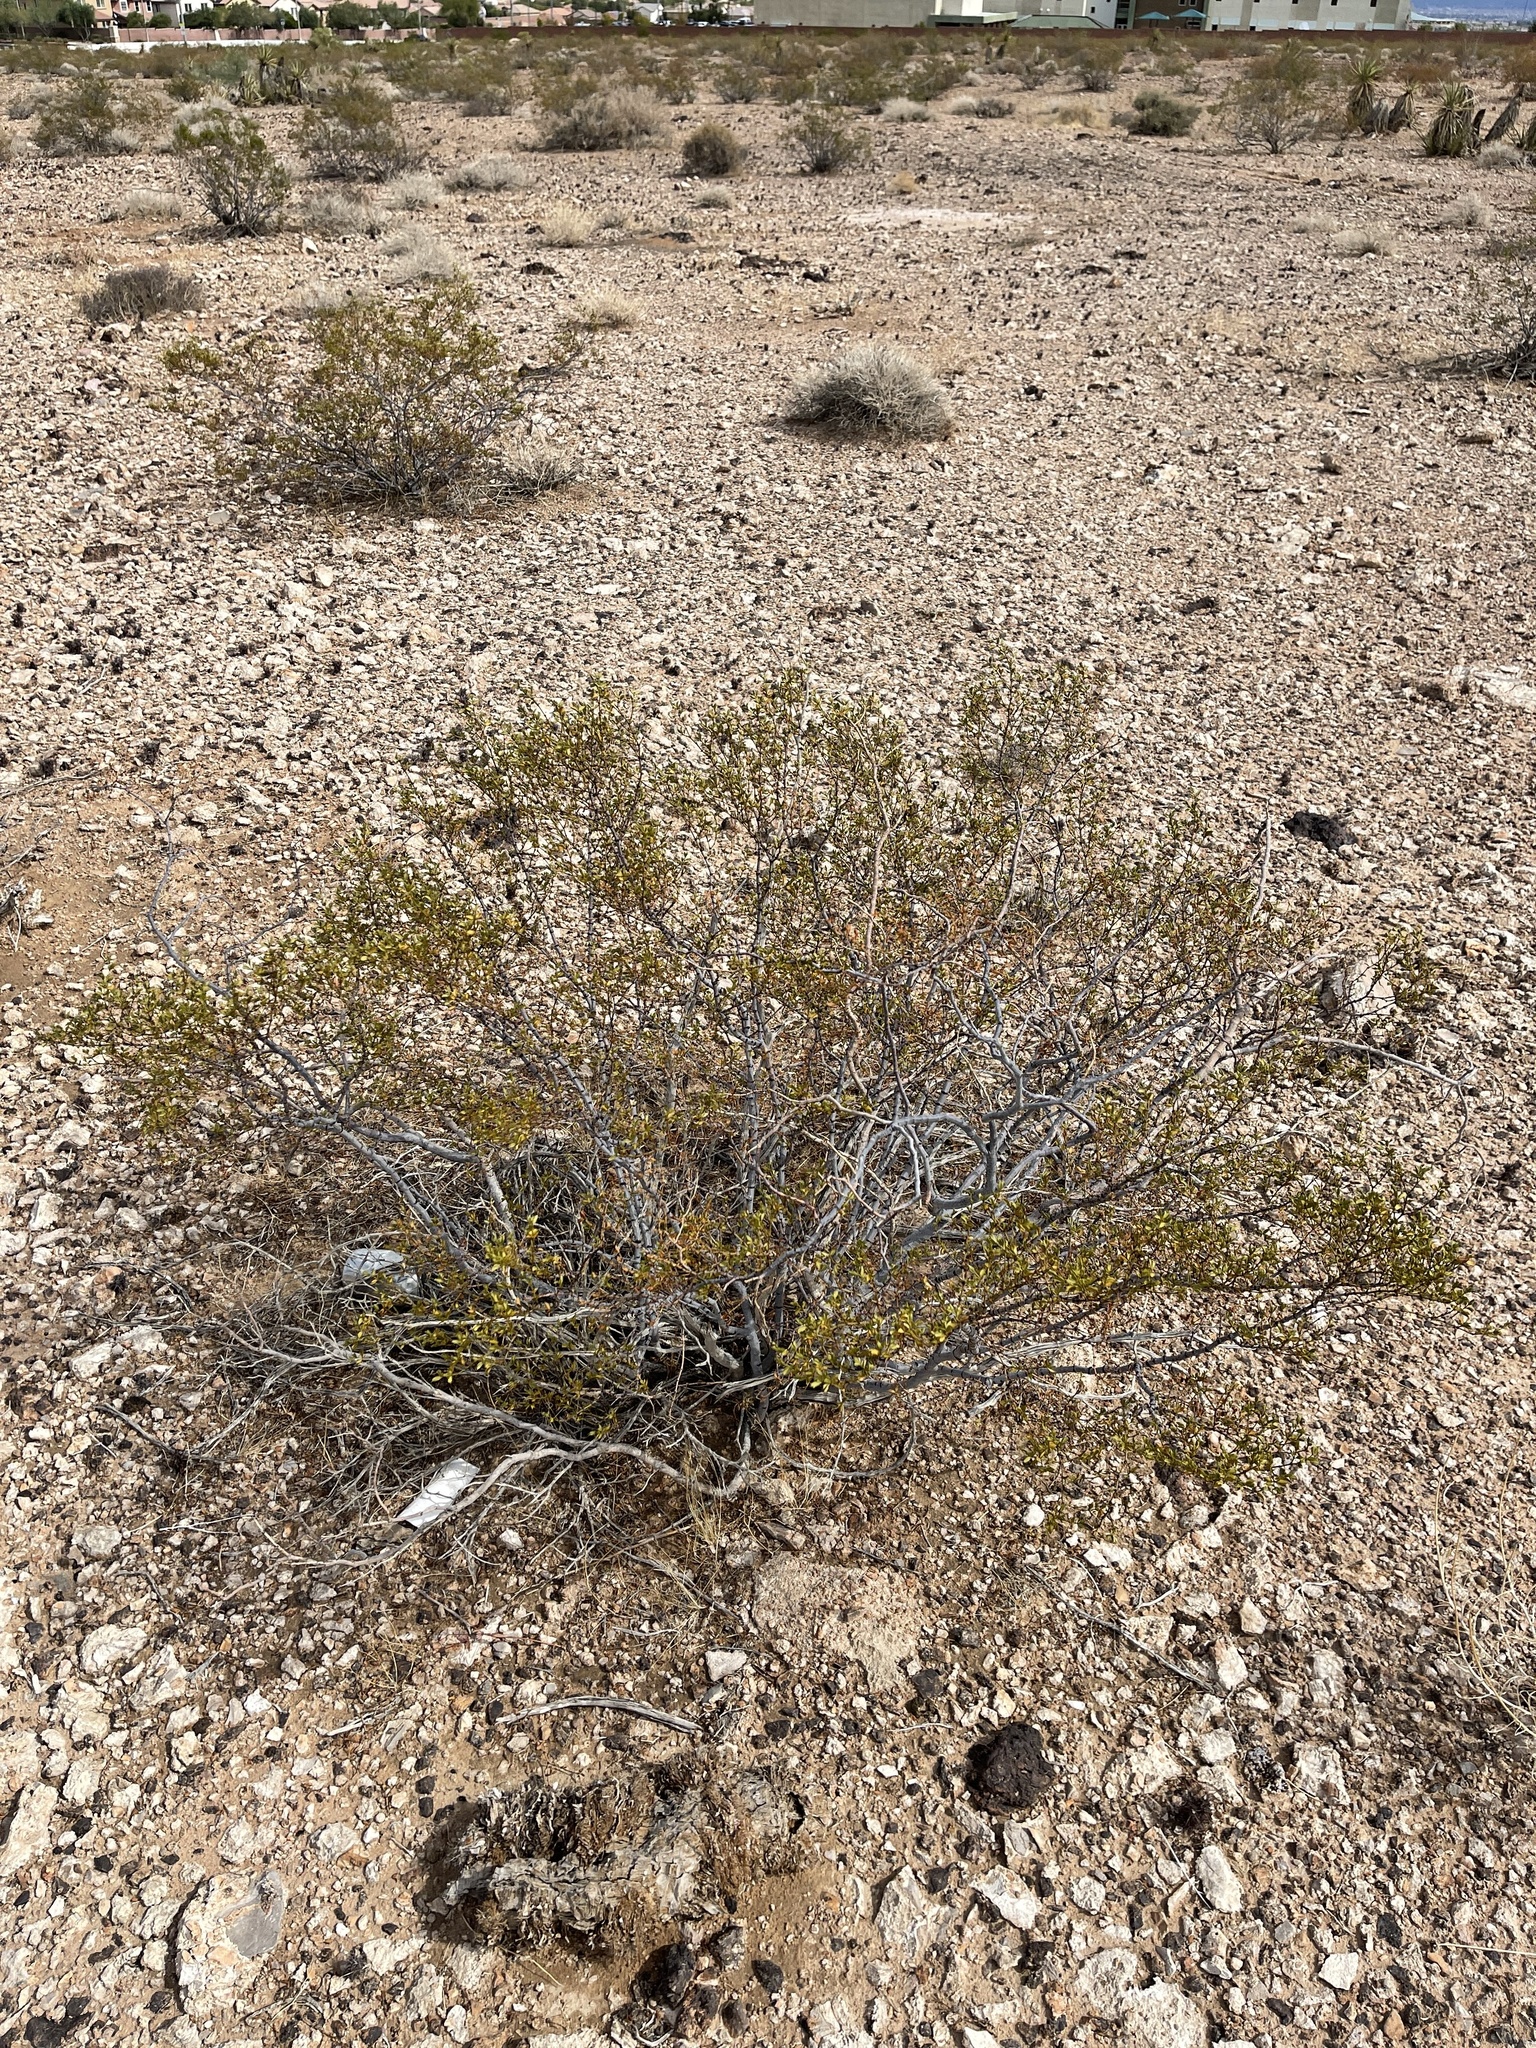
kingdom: Plantae
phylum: Tracheophyta
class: Magnoliopsida
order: Zygophyllales
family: Zygophyllaceae
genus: Larrea
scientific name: Larrea tridentata
